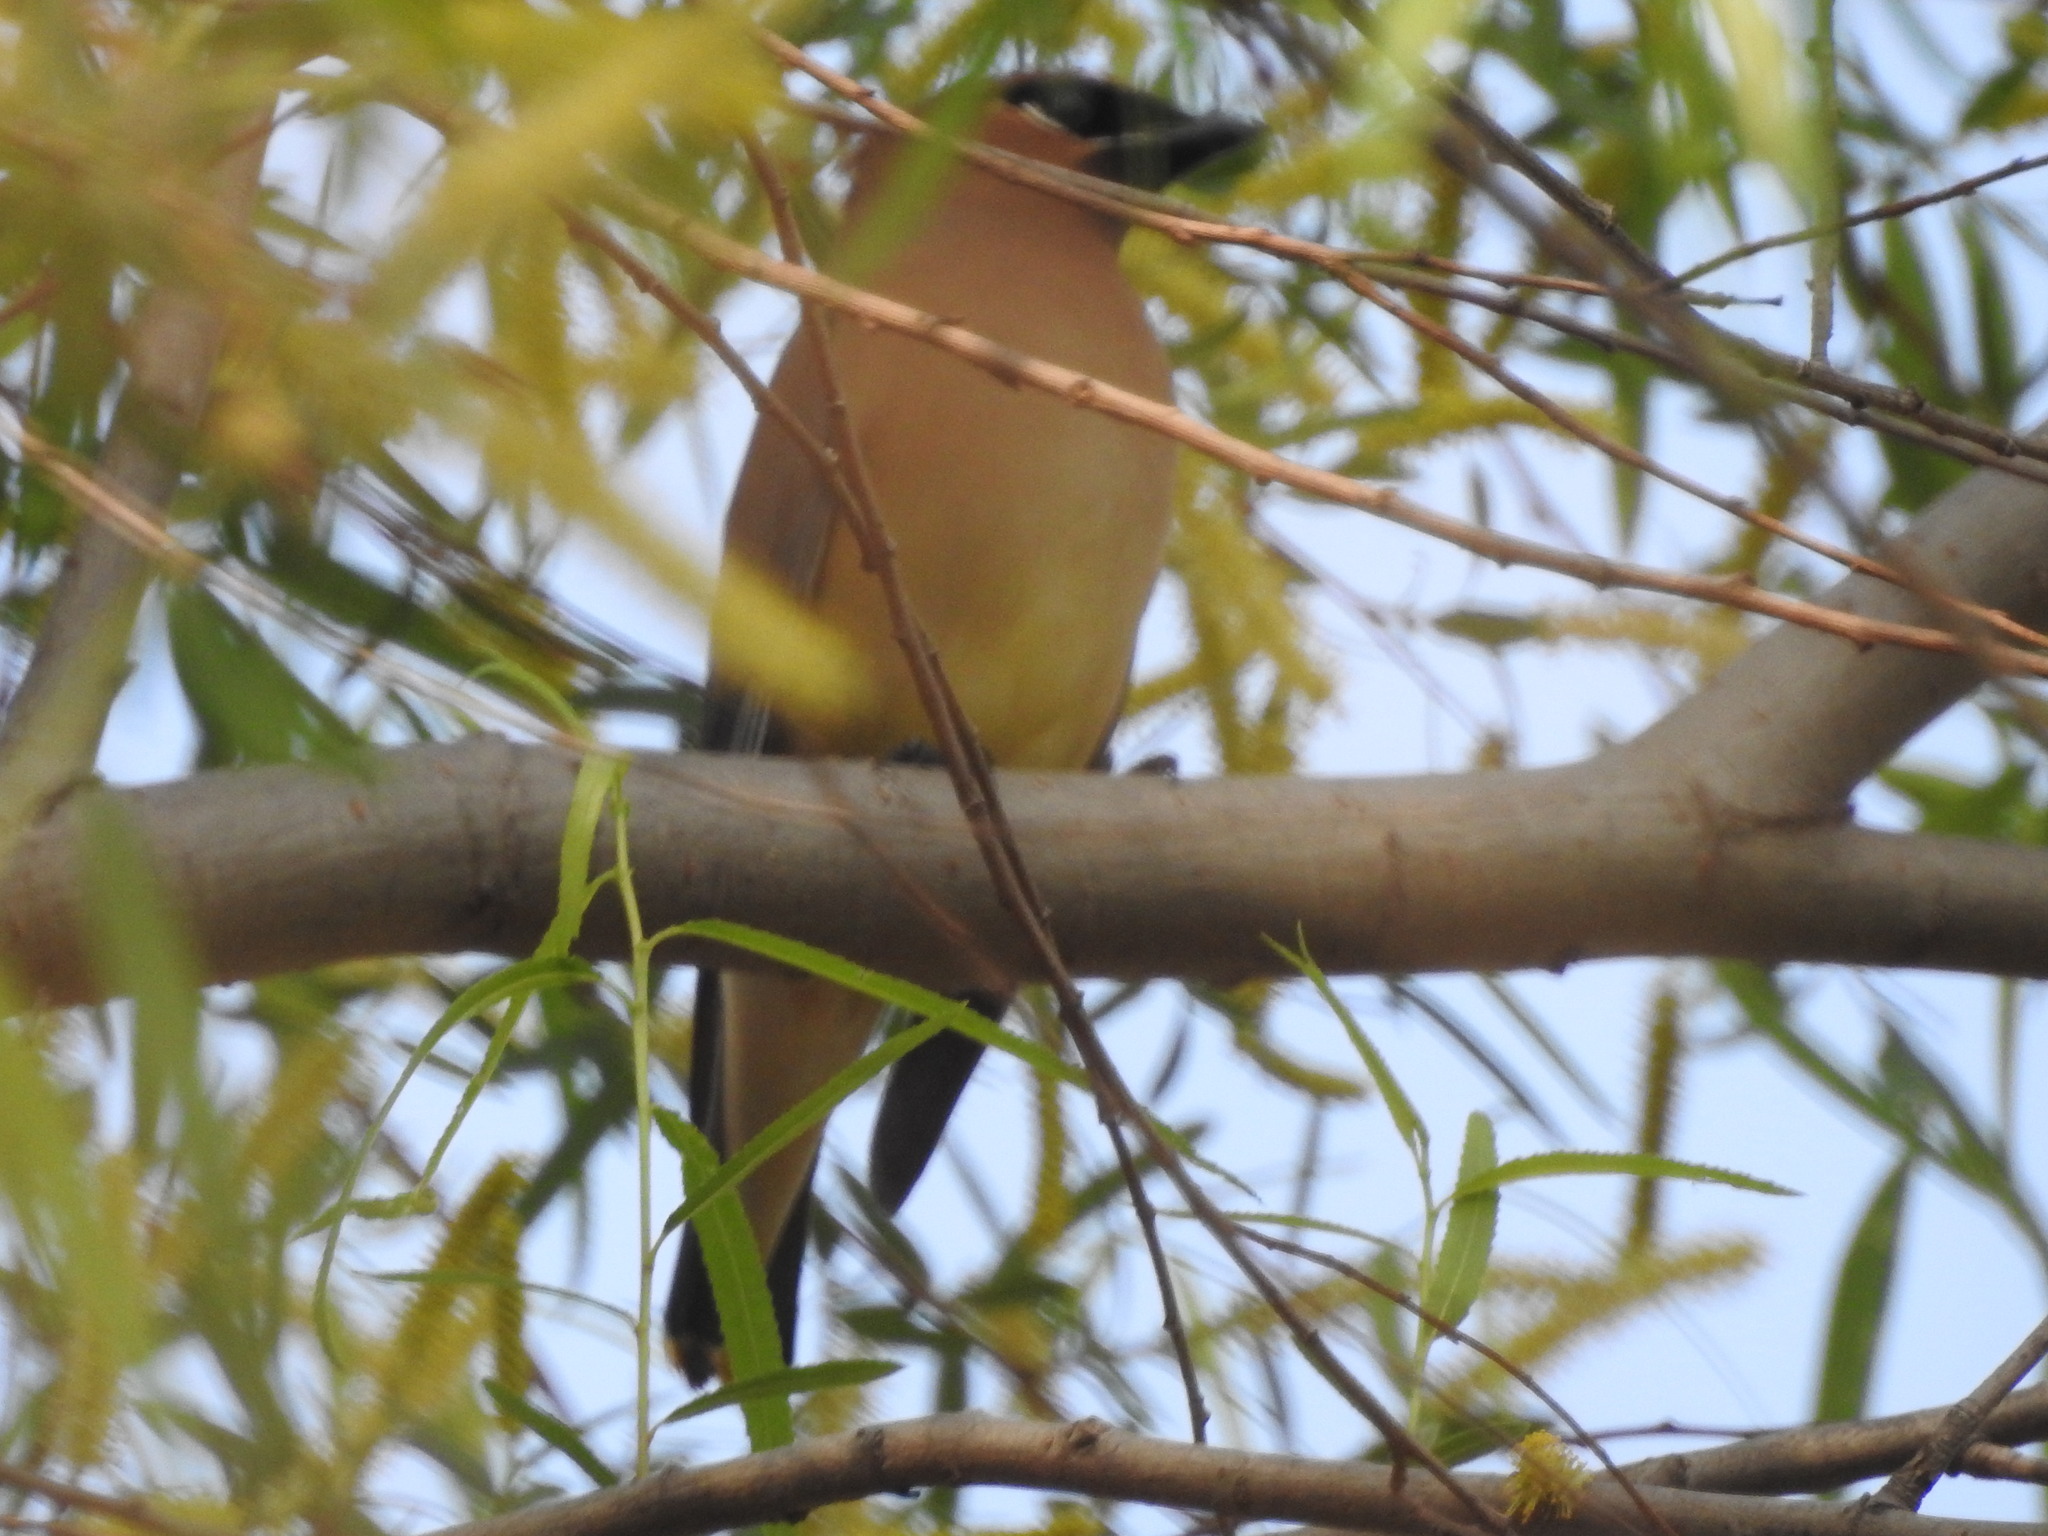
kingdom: Animalia
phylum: Chordata
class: Aves
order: Passeriformes
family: Bombycillidae
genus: Bombycilla
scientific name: Bombycilla cedrorum
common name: Cedar waxwing
